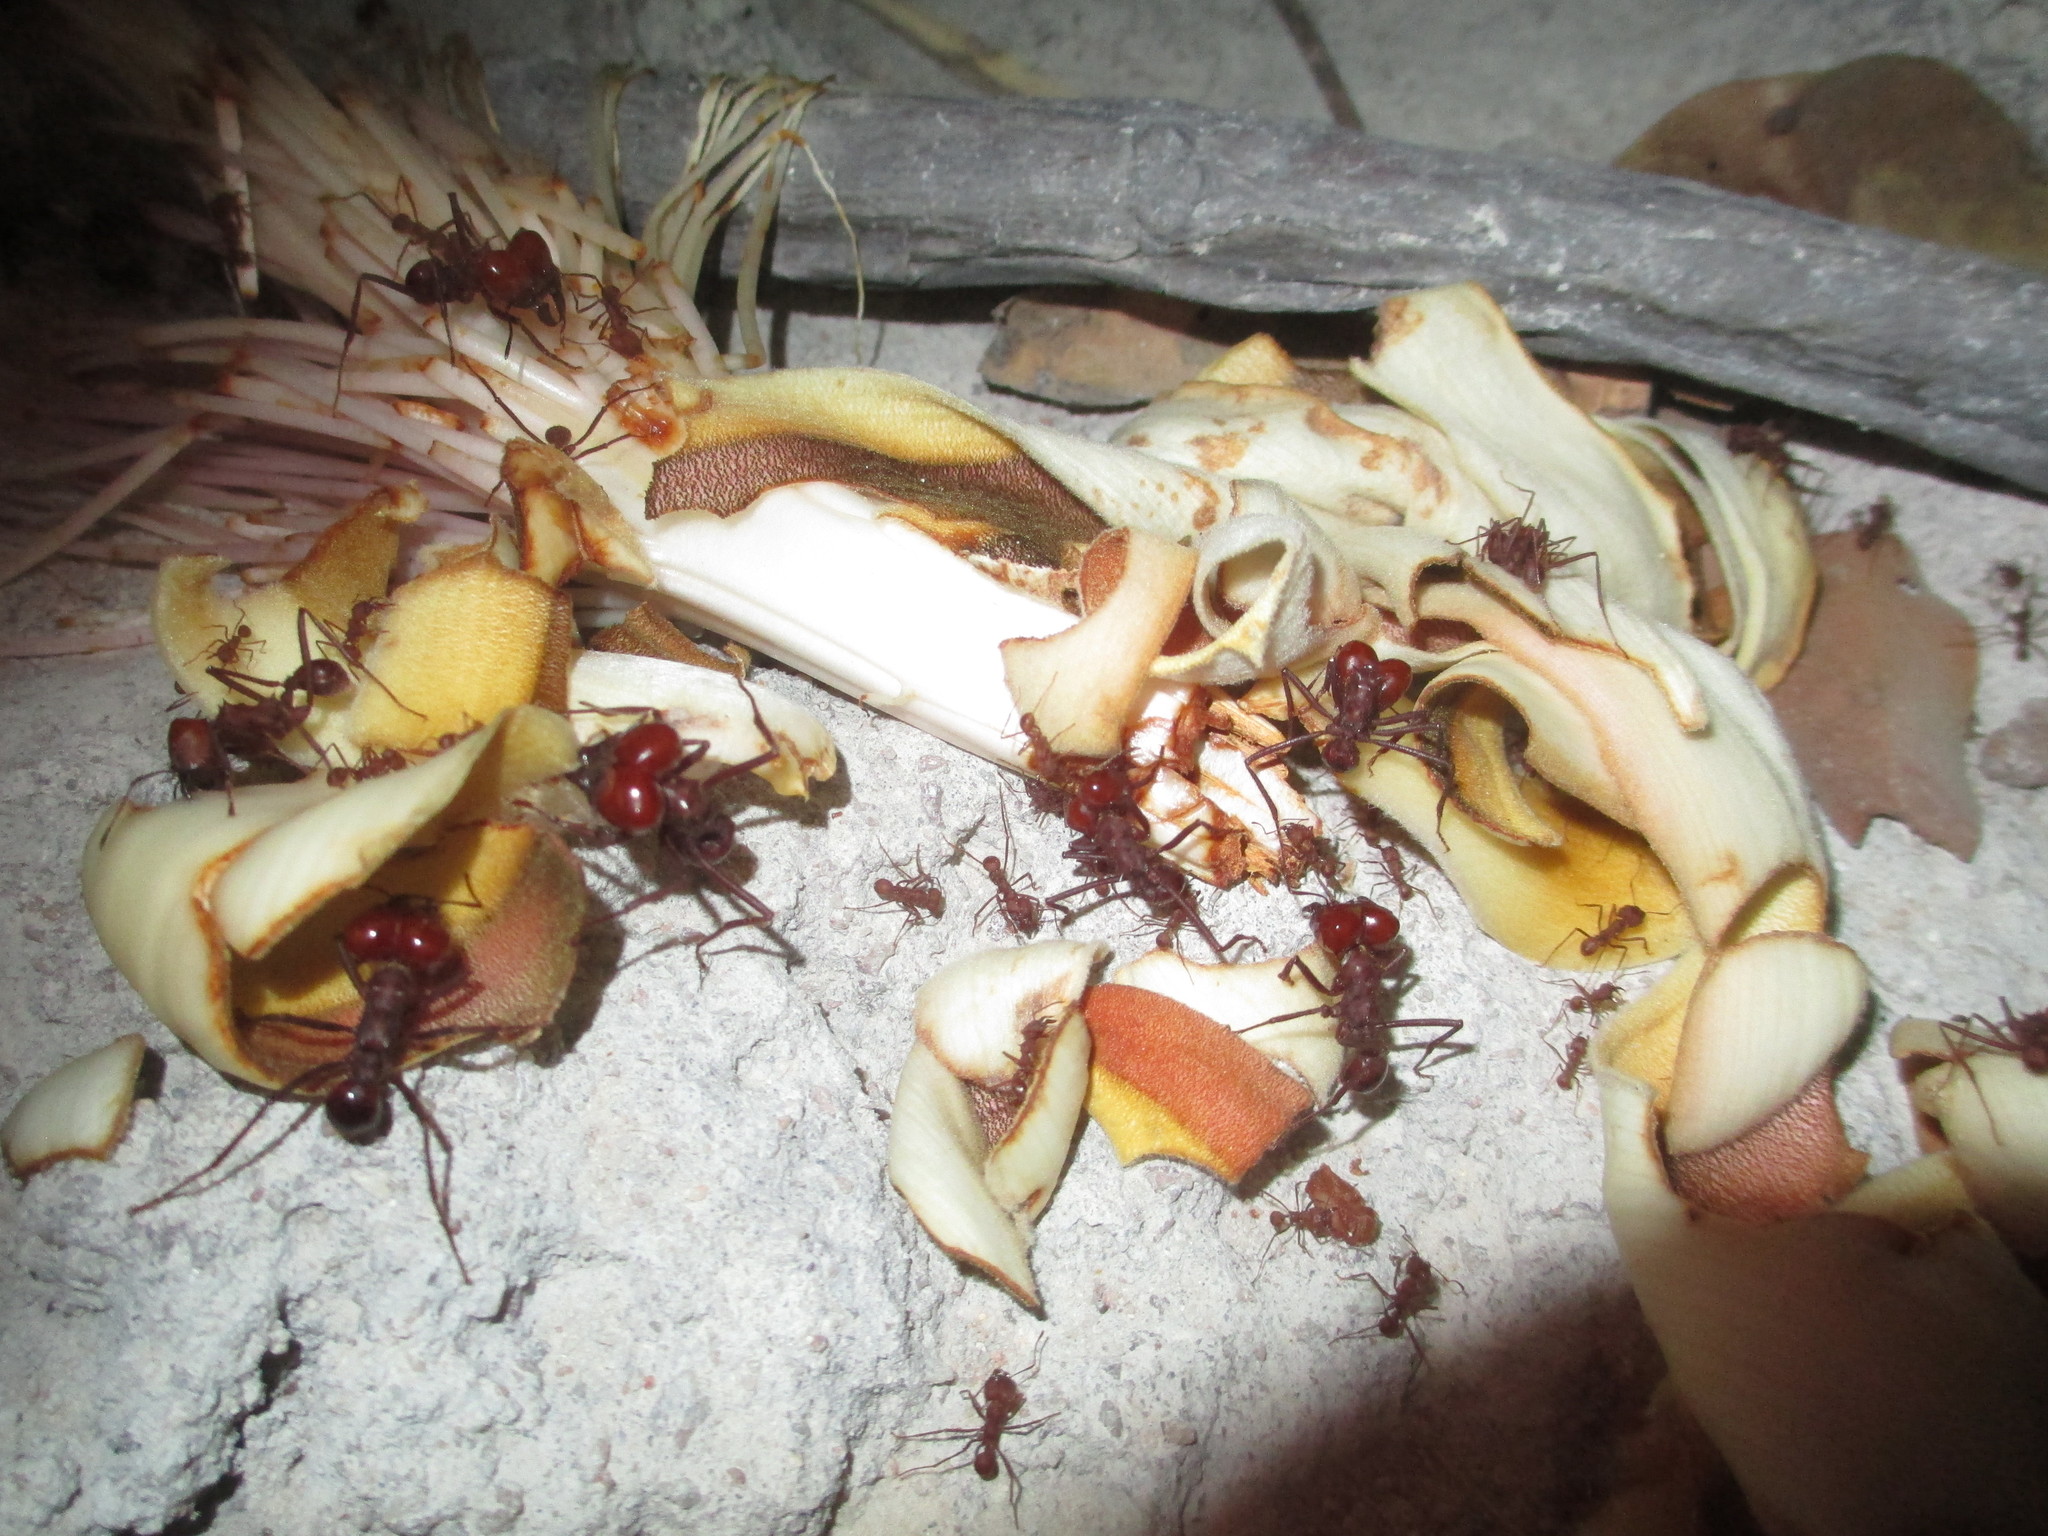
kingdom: Animalia
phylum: Arthropoda
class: Insecta
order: Hymenoptera
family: Formicidae
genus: Atta
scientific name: Atta laevigata
